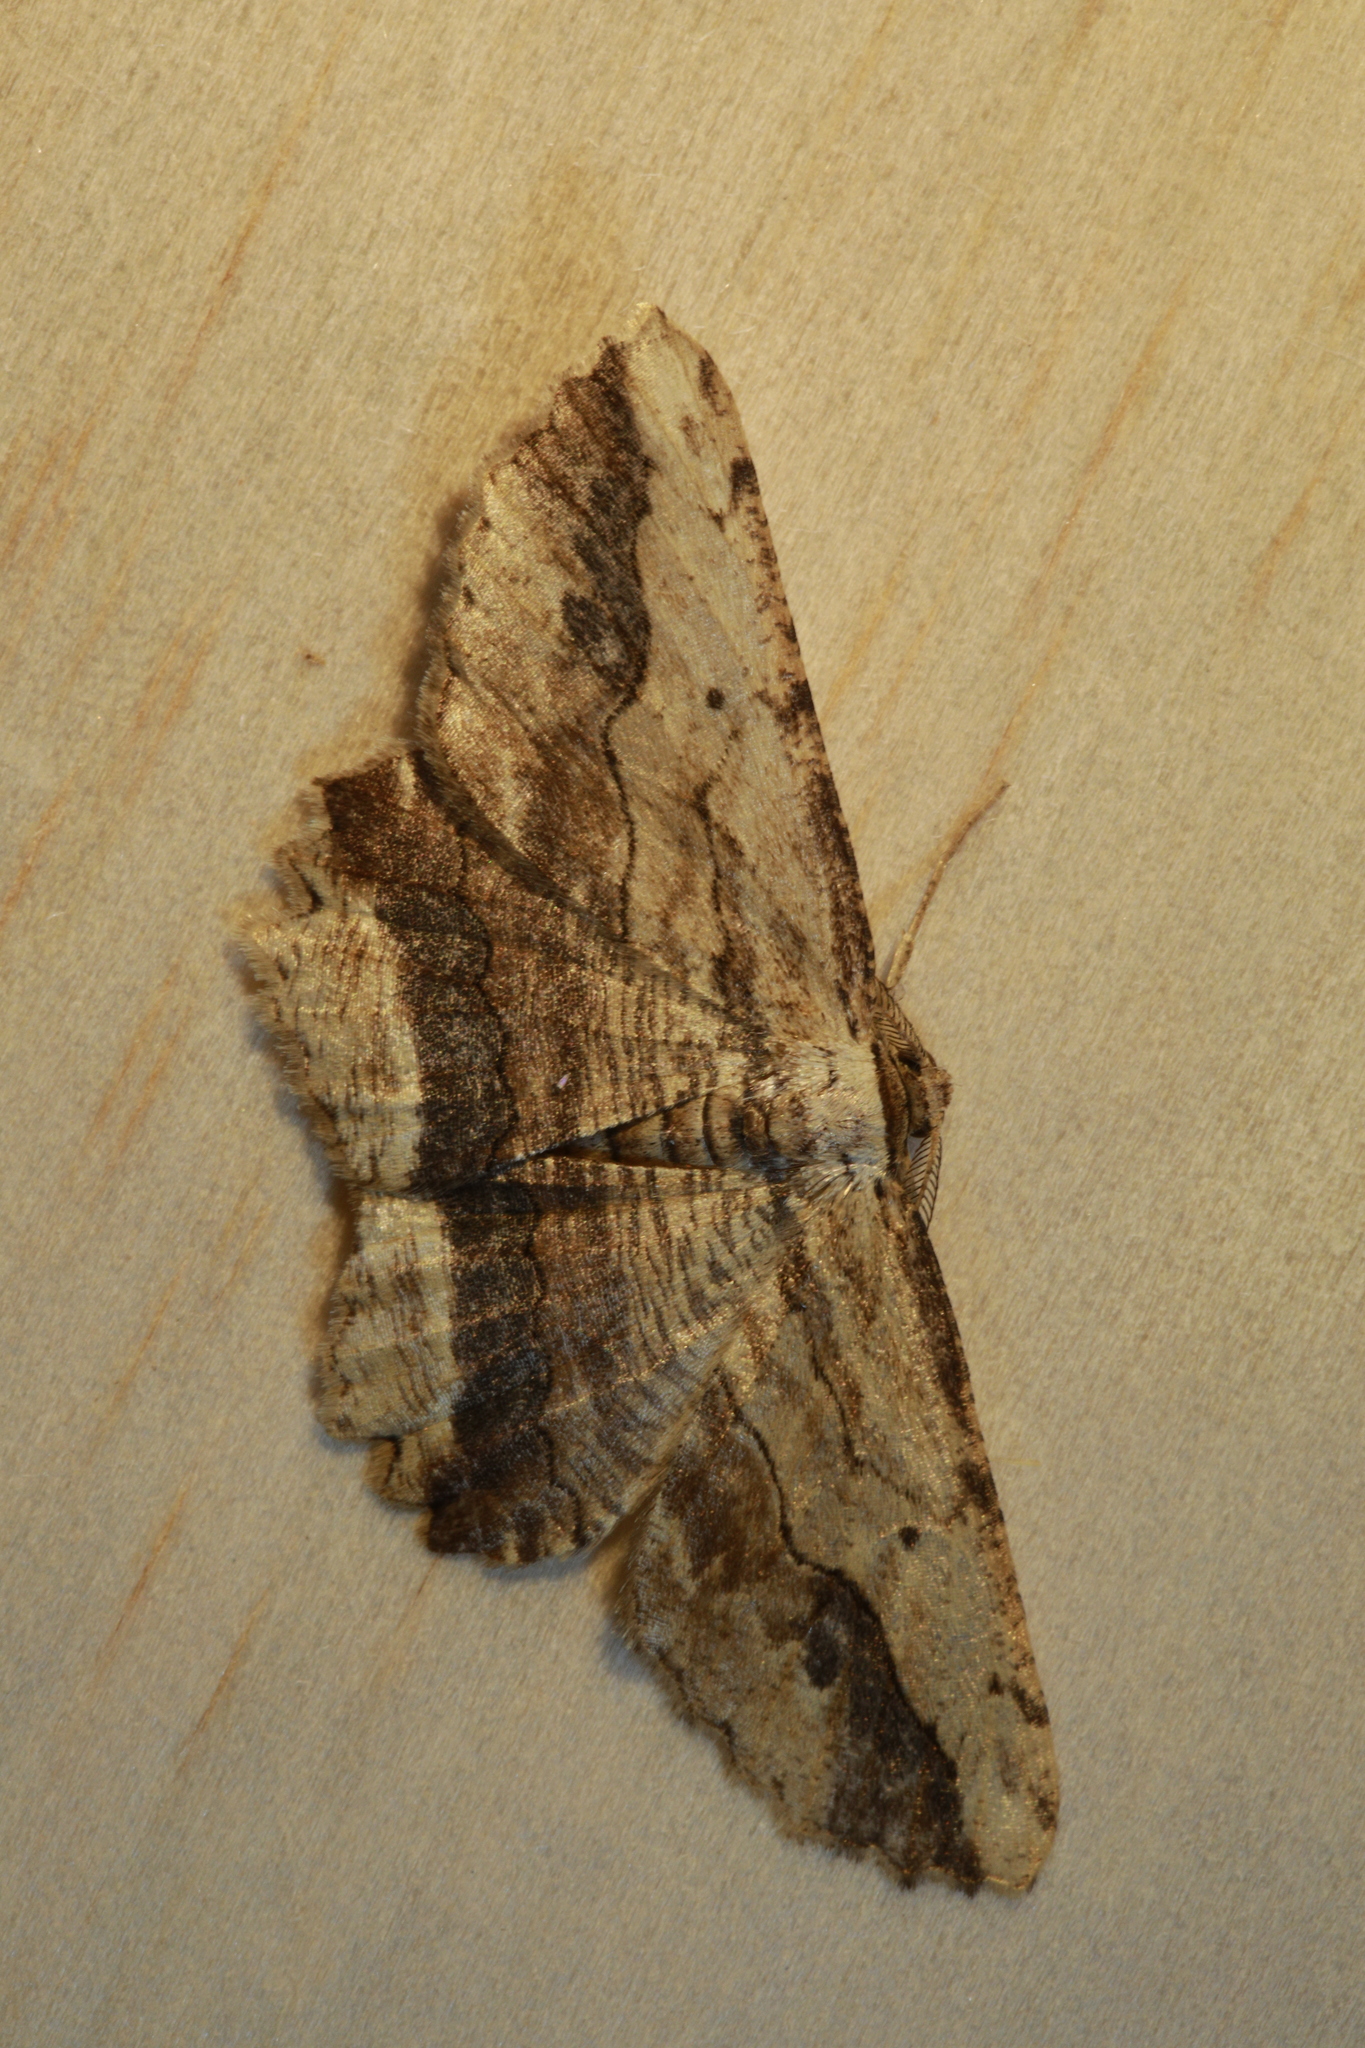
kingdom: Animalia
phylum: Arthropoda
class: Insecta
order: Lepidoptera
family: Geometridae
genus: Menophra
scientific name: Menophra abruptaria
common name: Waved umber
